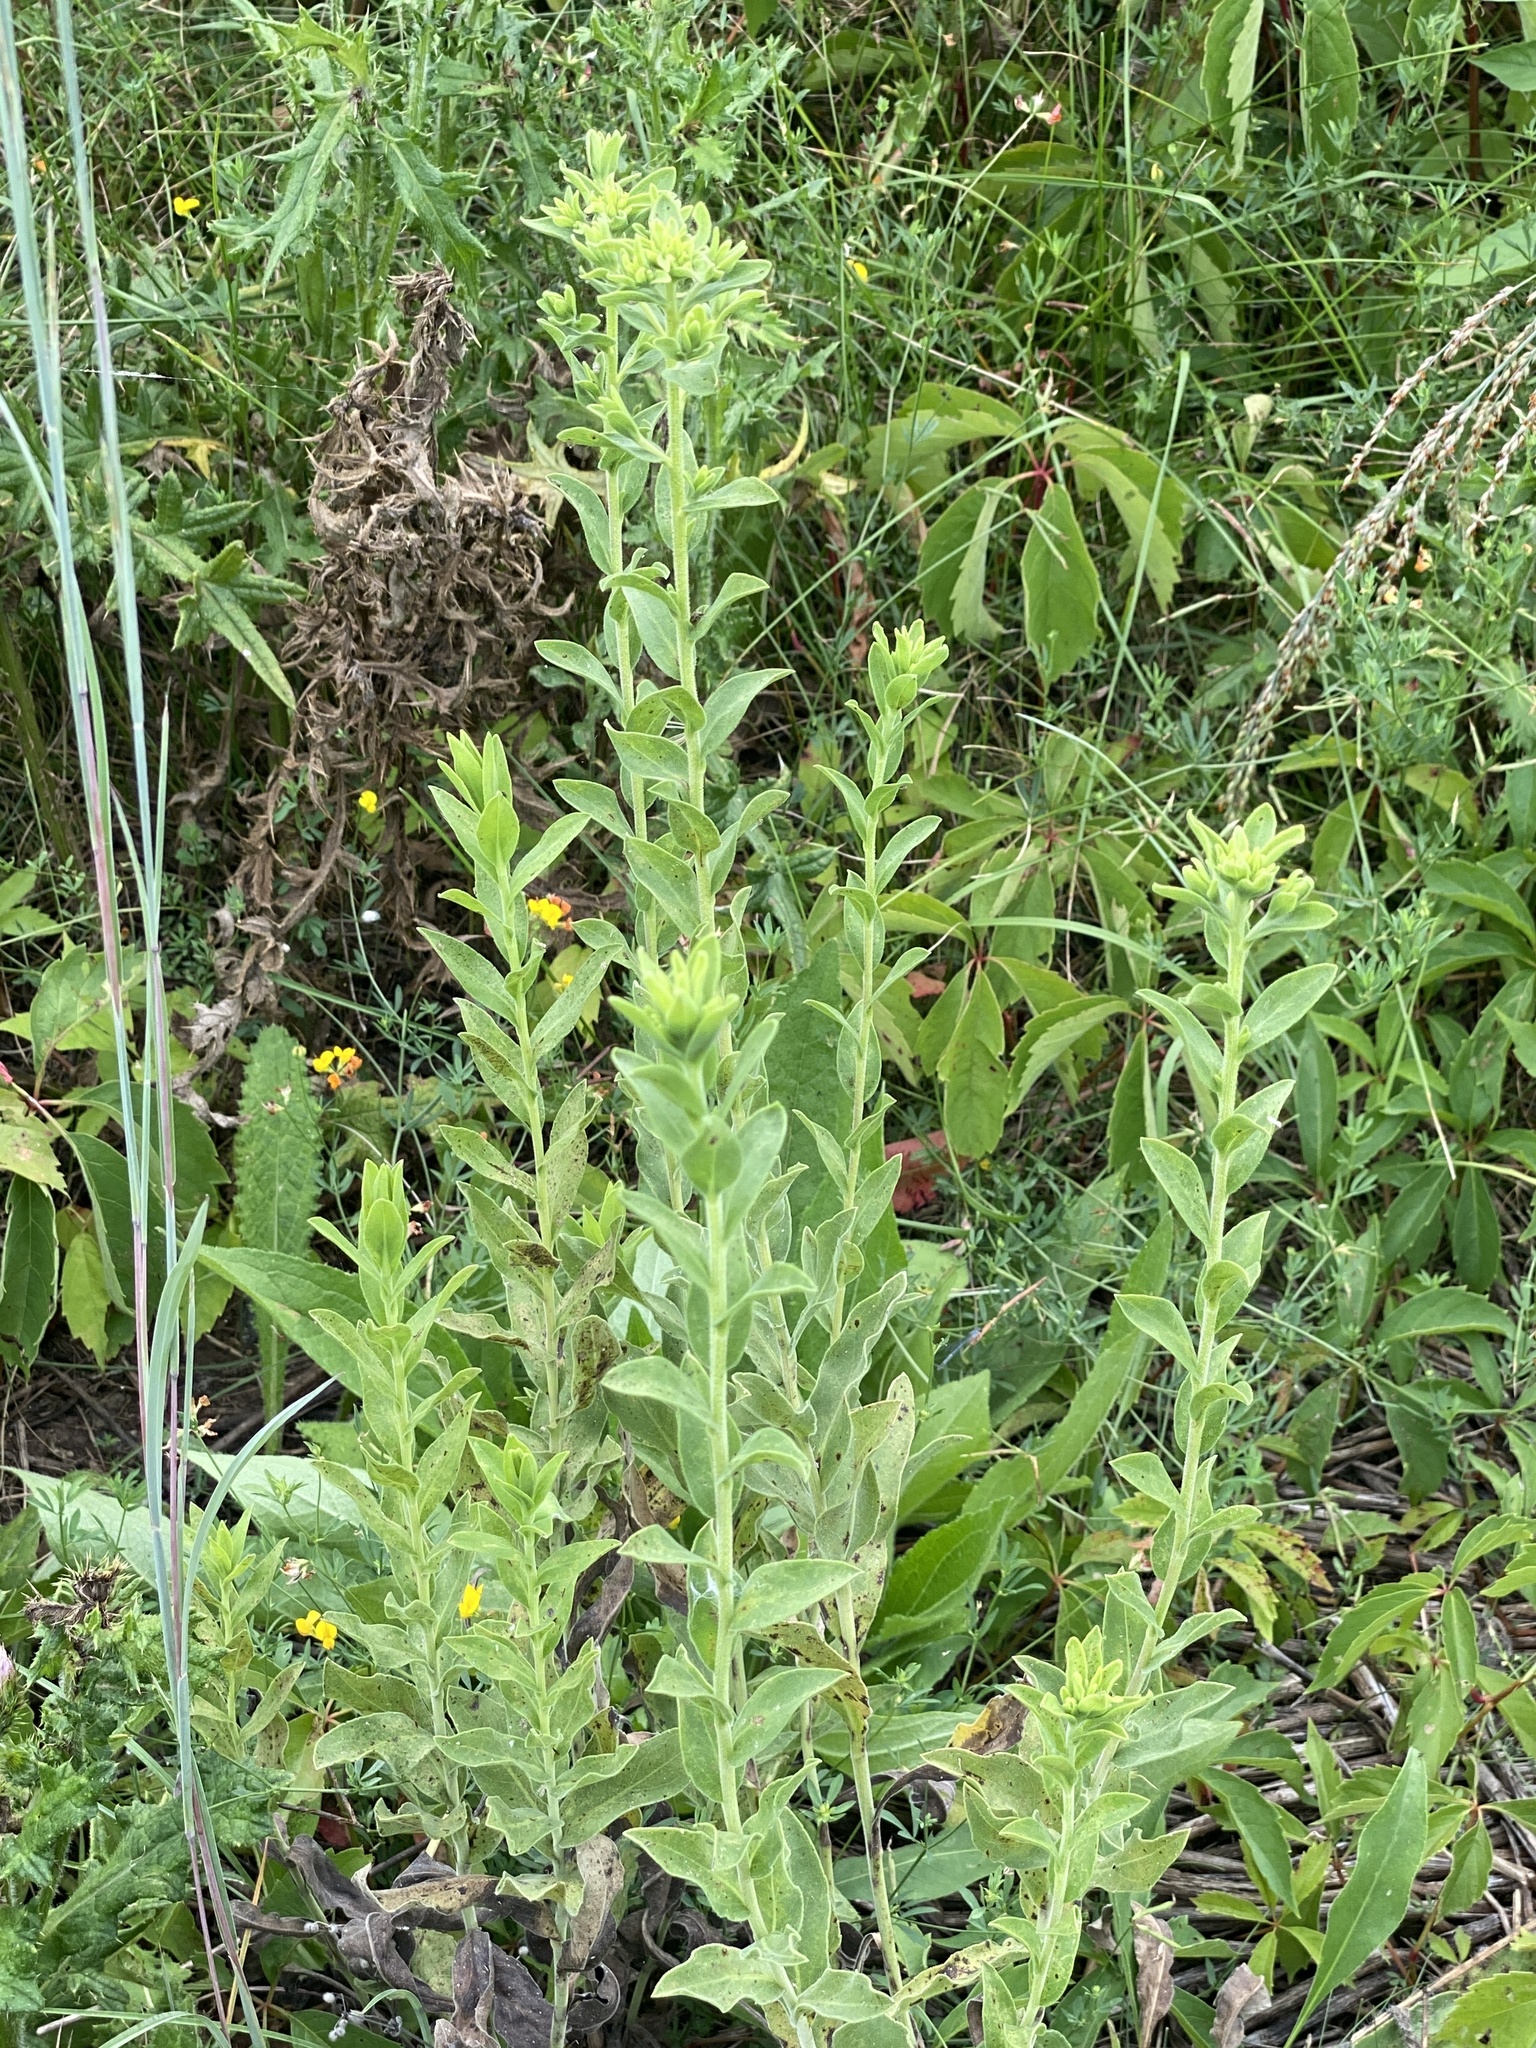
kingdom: Plantae
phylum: Tracheophyta
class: Magnoliopsida
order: Asterales
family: Asteraceae
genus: Solidago
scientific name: Solidago rigida
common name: Rigid goldenrod
